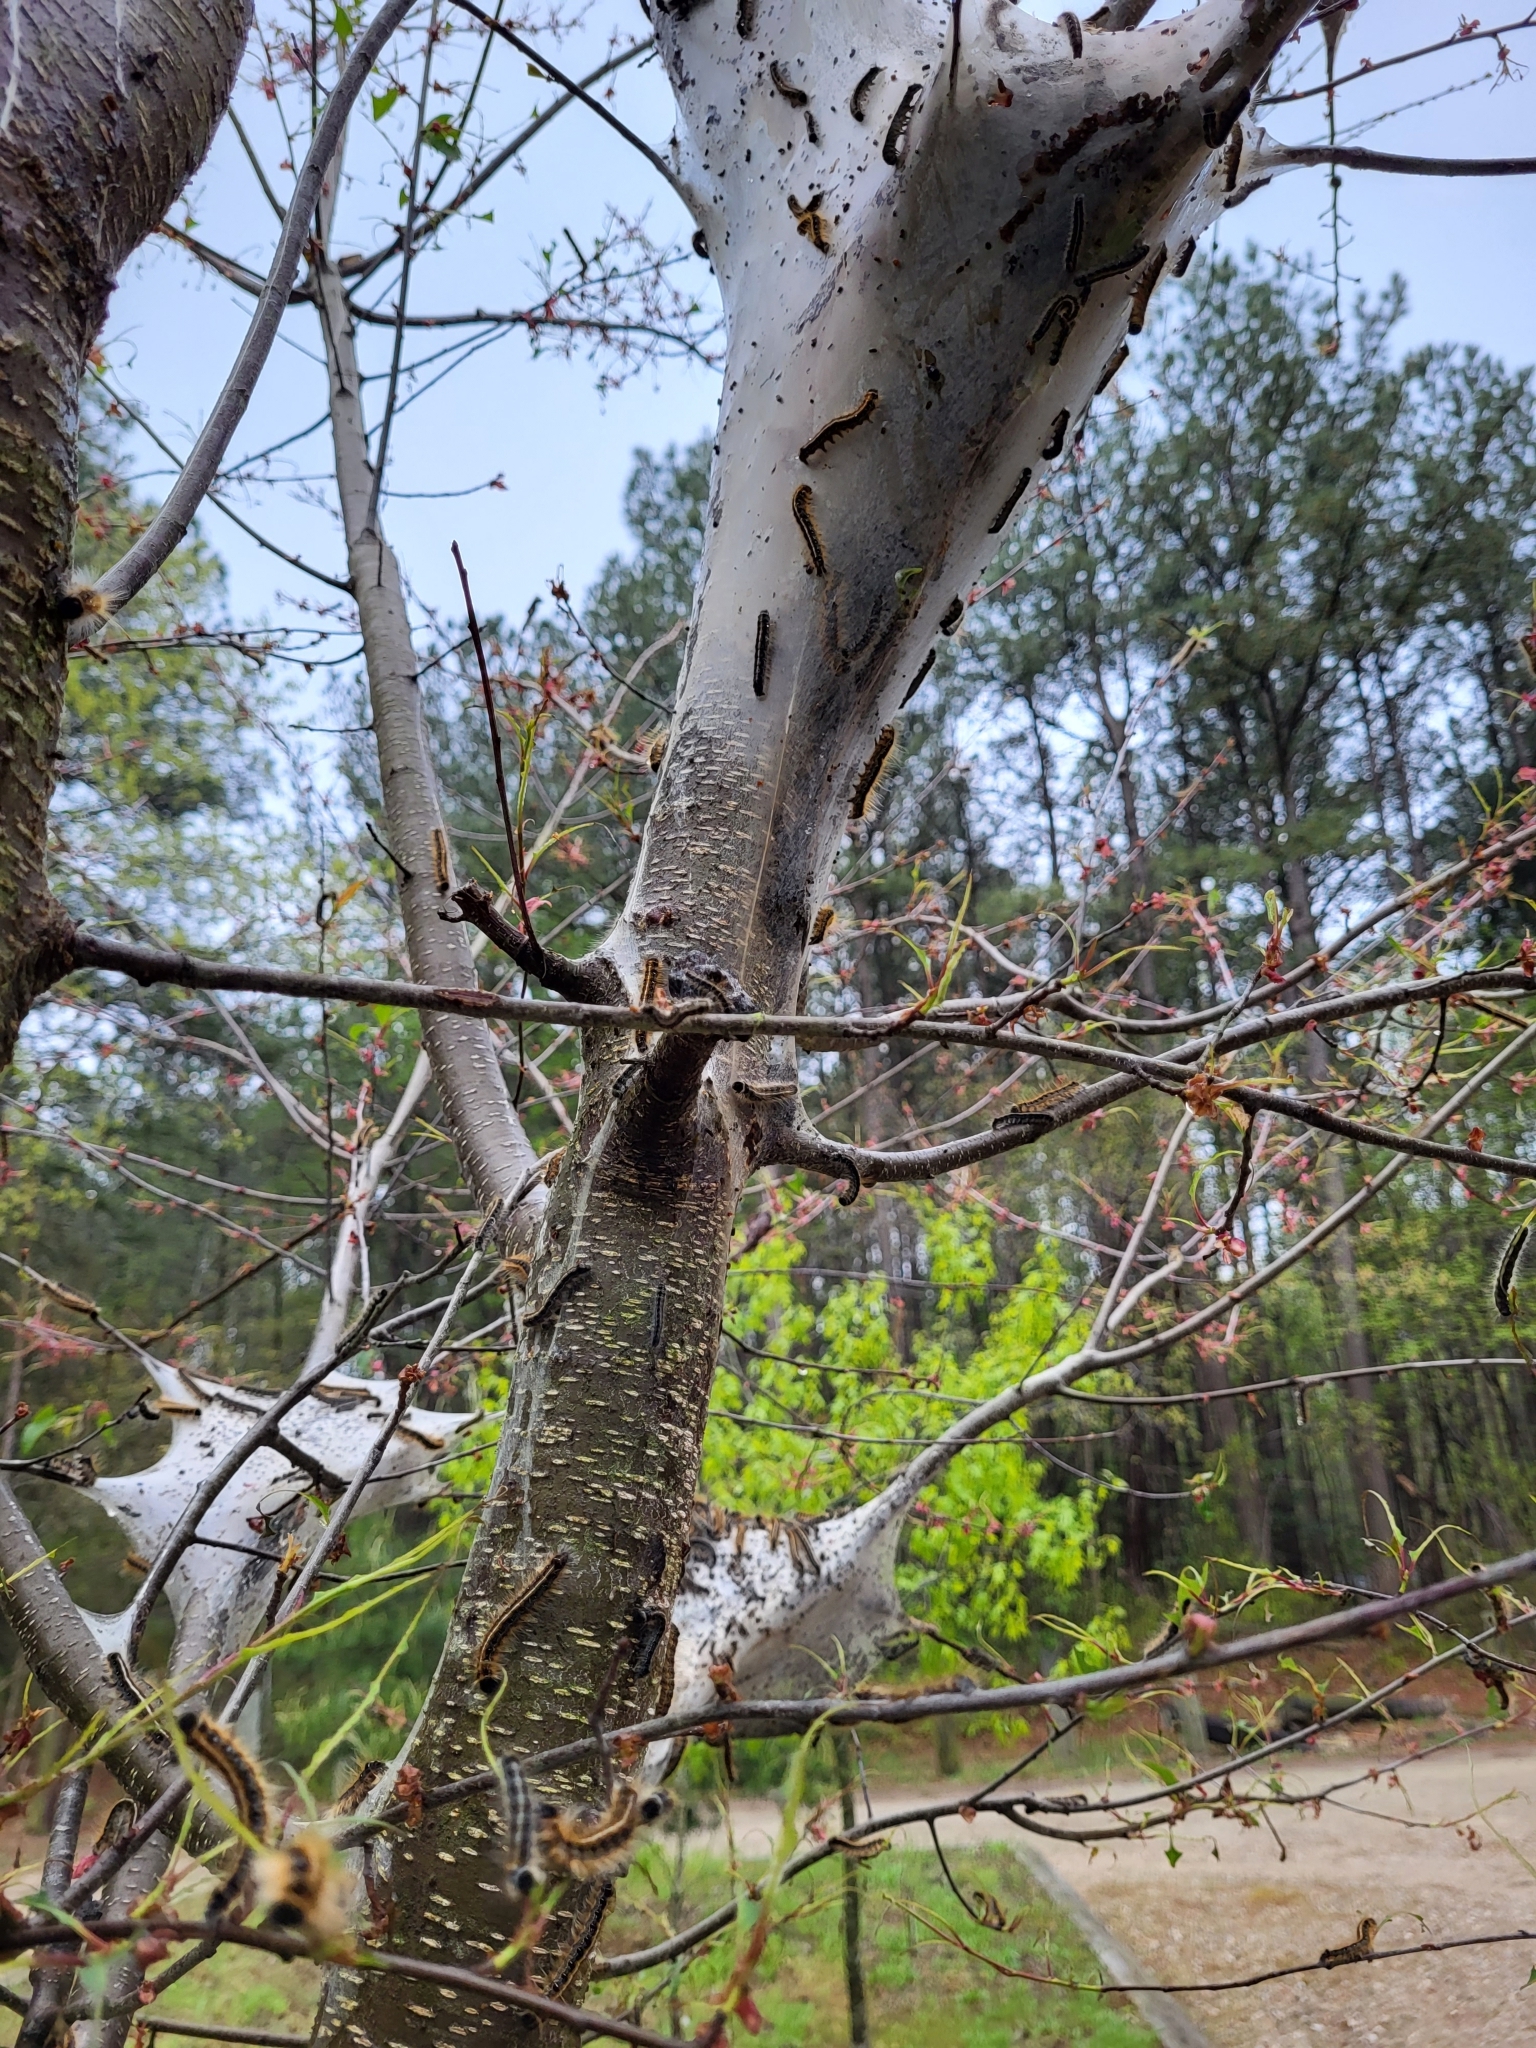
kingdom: Animalia
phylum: Arthropoda
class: Insecta
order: Lepidoptera
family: Lasiocampidae
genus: Malacosoma
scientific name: Malacosoma americana
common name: Eastern tent caterpillar moth
